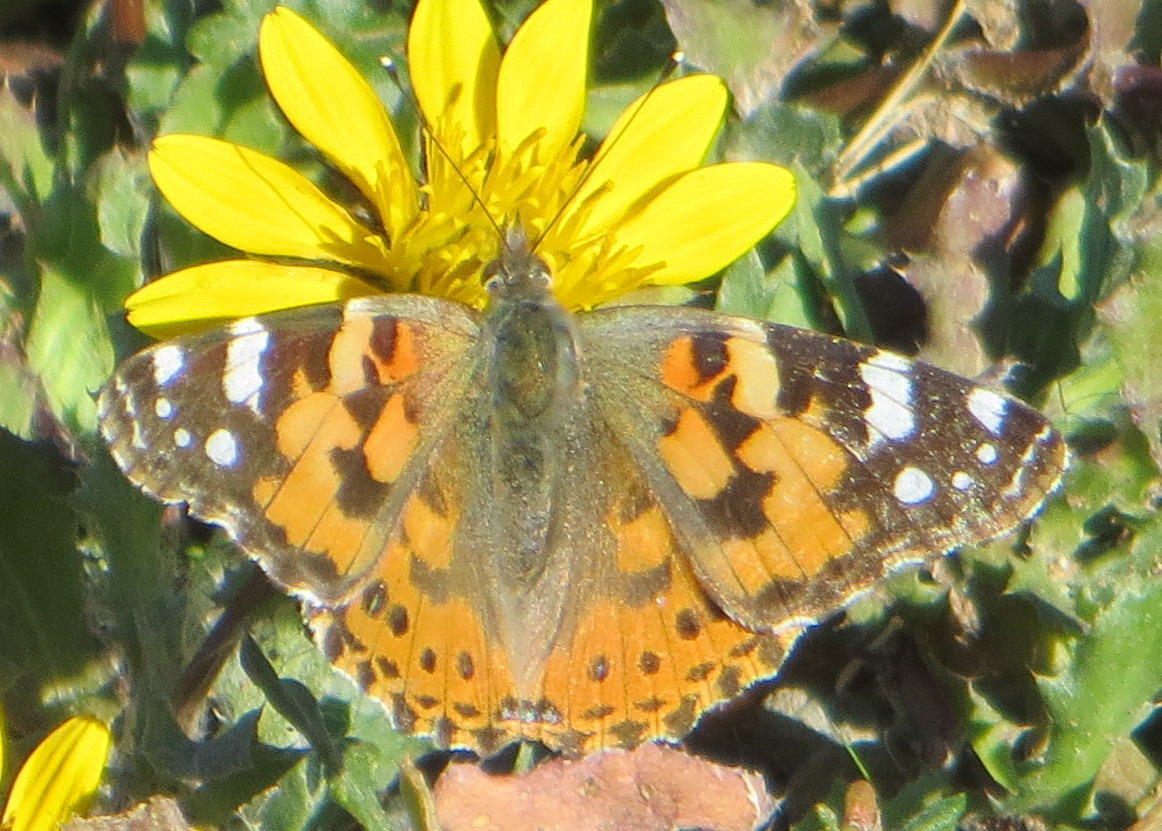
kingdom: Animalia
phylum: Arthropoda
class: Insecta
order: Lepidoptera
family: Nymphalidae
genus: Vanessa
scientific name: Vanessa cardui
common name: Painted lady
